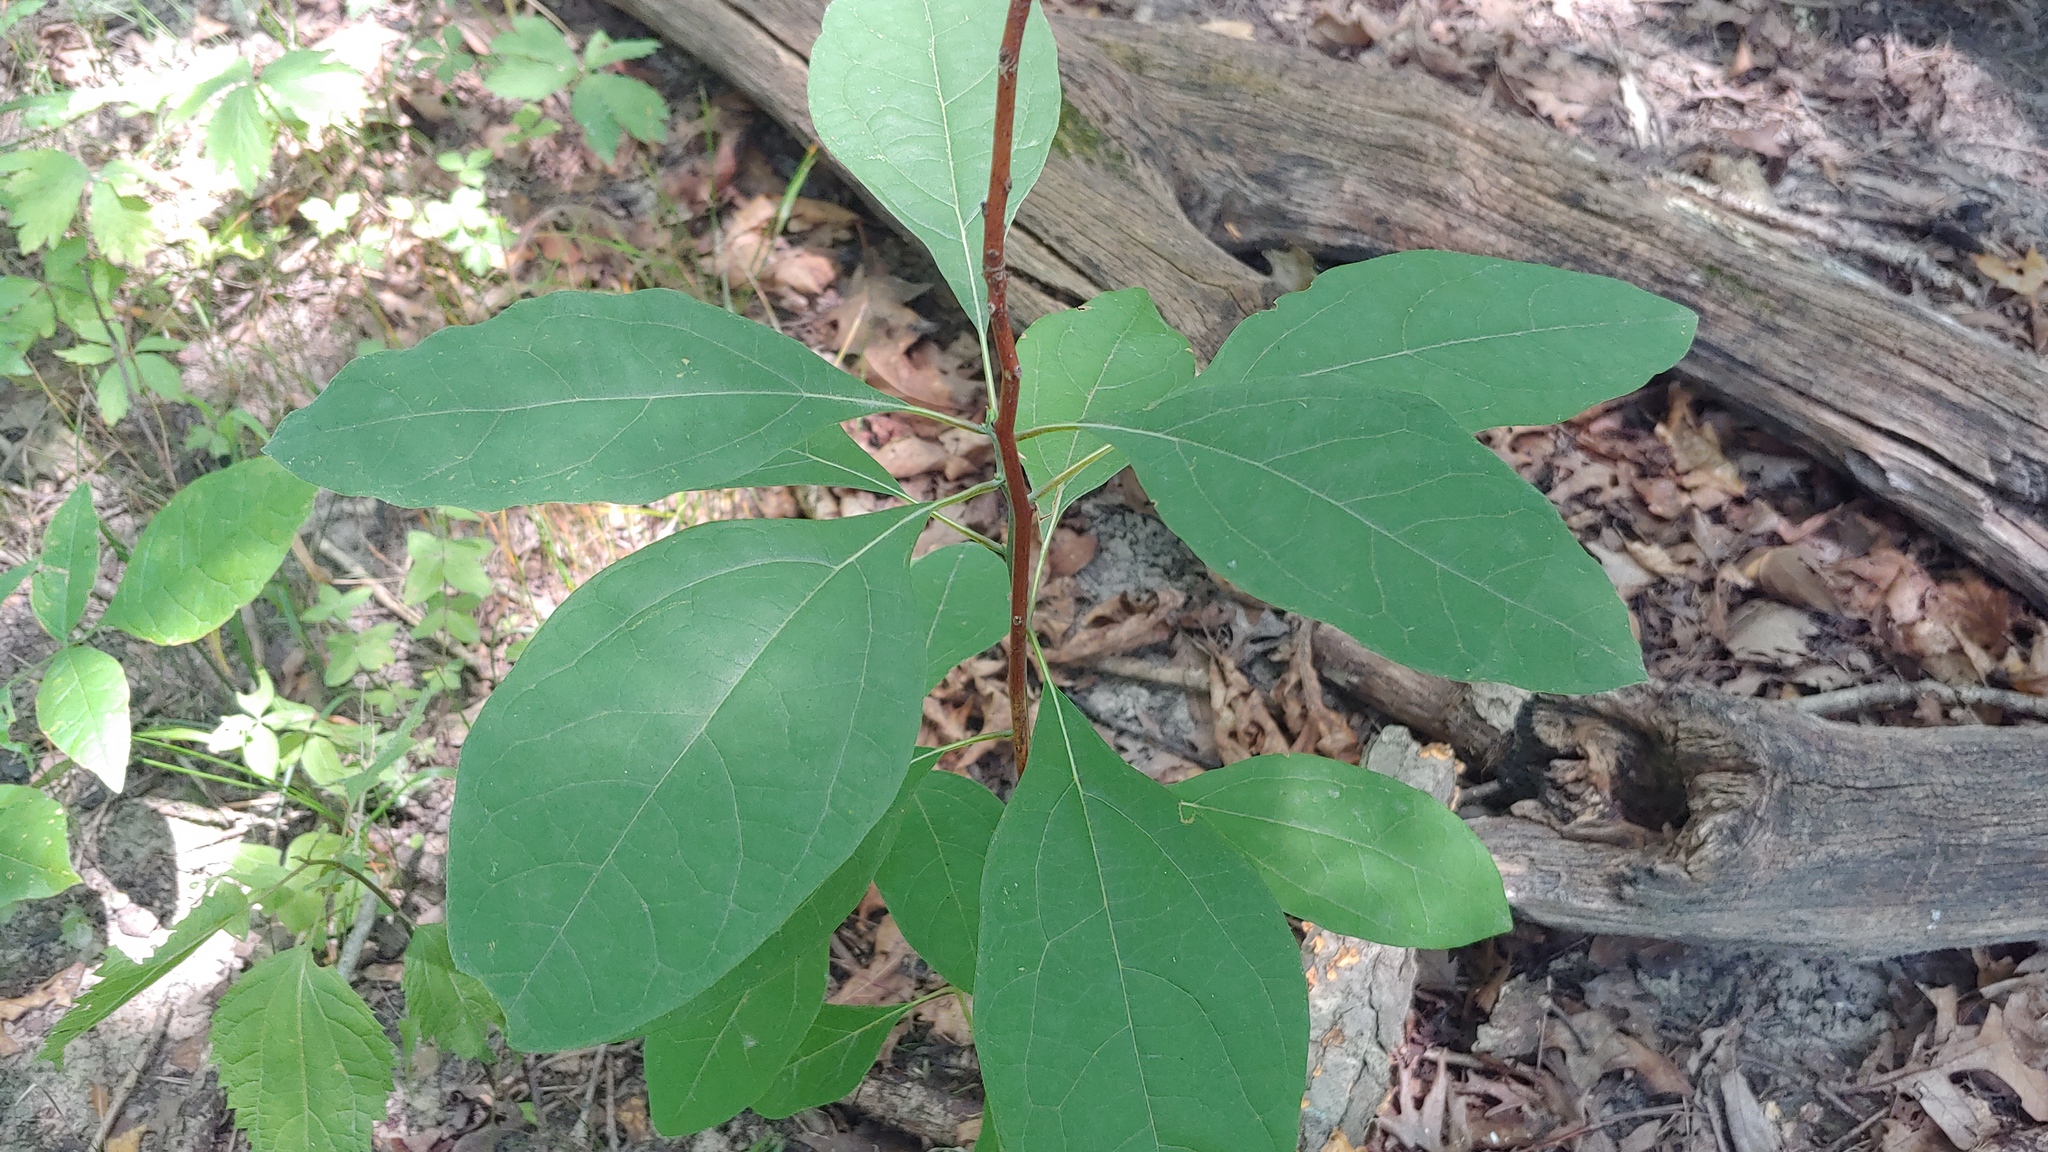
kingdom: Plantae
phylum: Tracheophyta
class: Magnoliopsida
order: Laurales
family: Lauraceae
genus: Sassafras
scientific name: Sassafras albidum
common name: Sassafras
